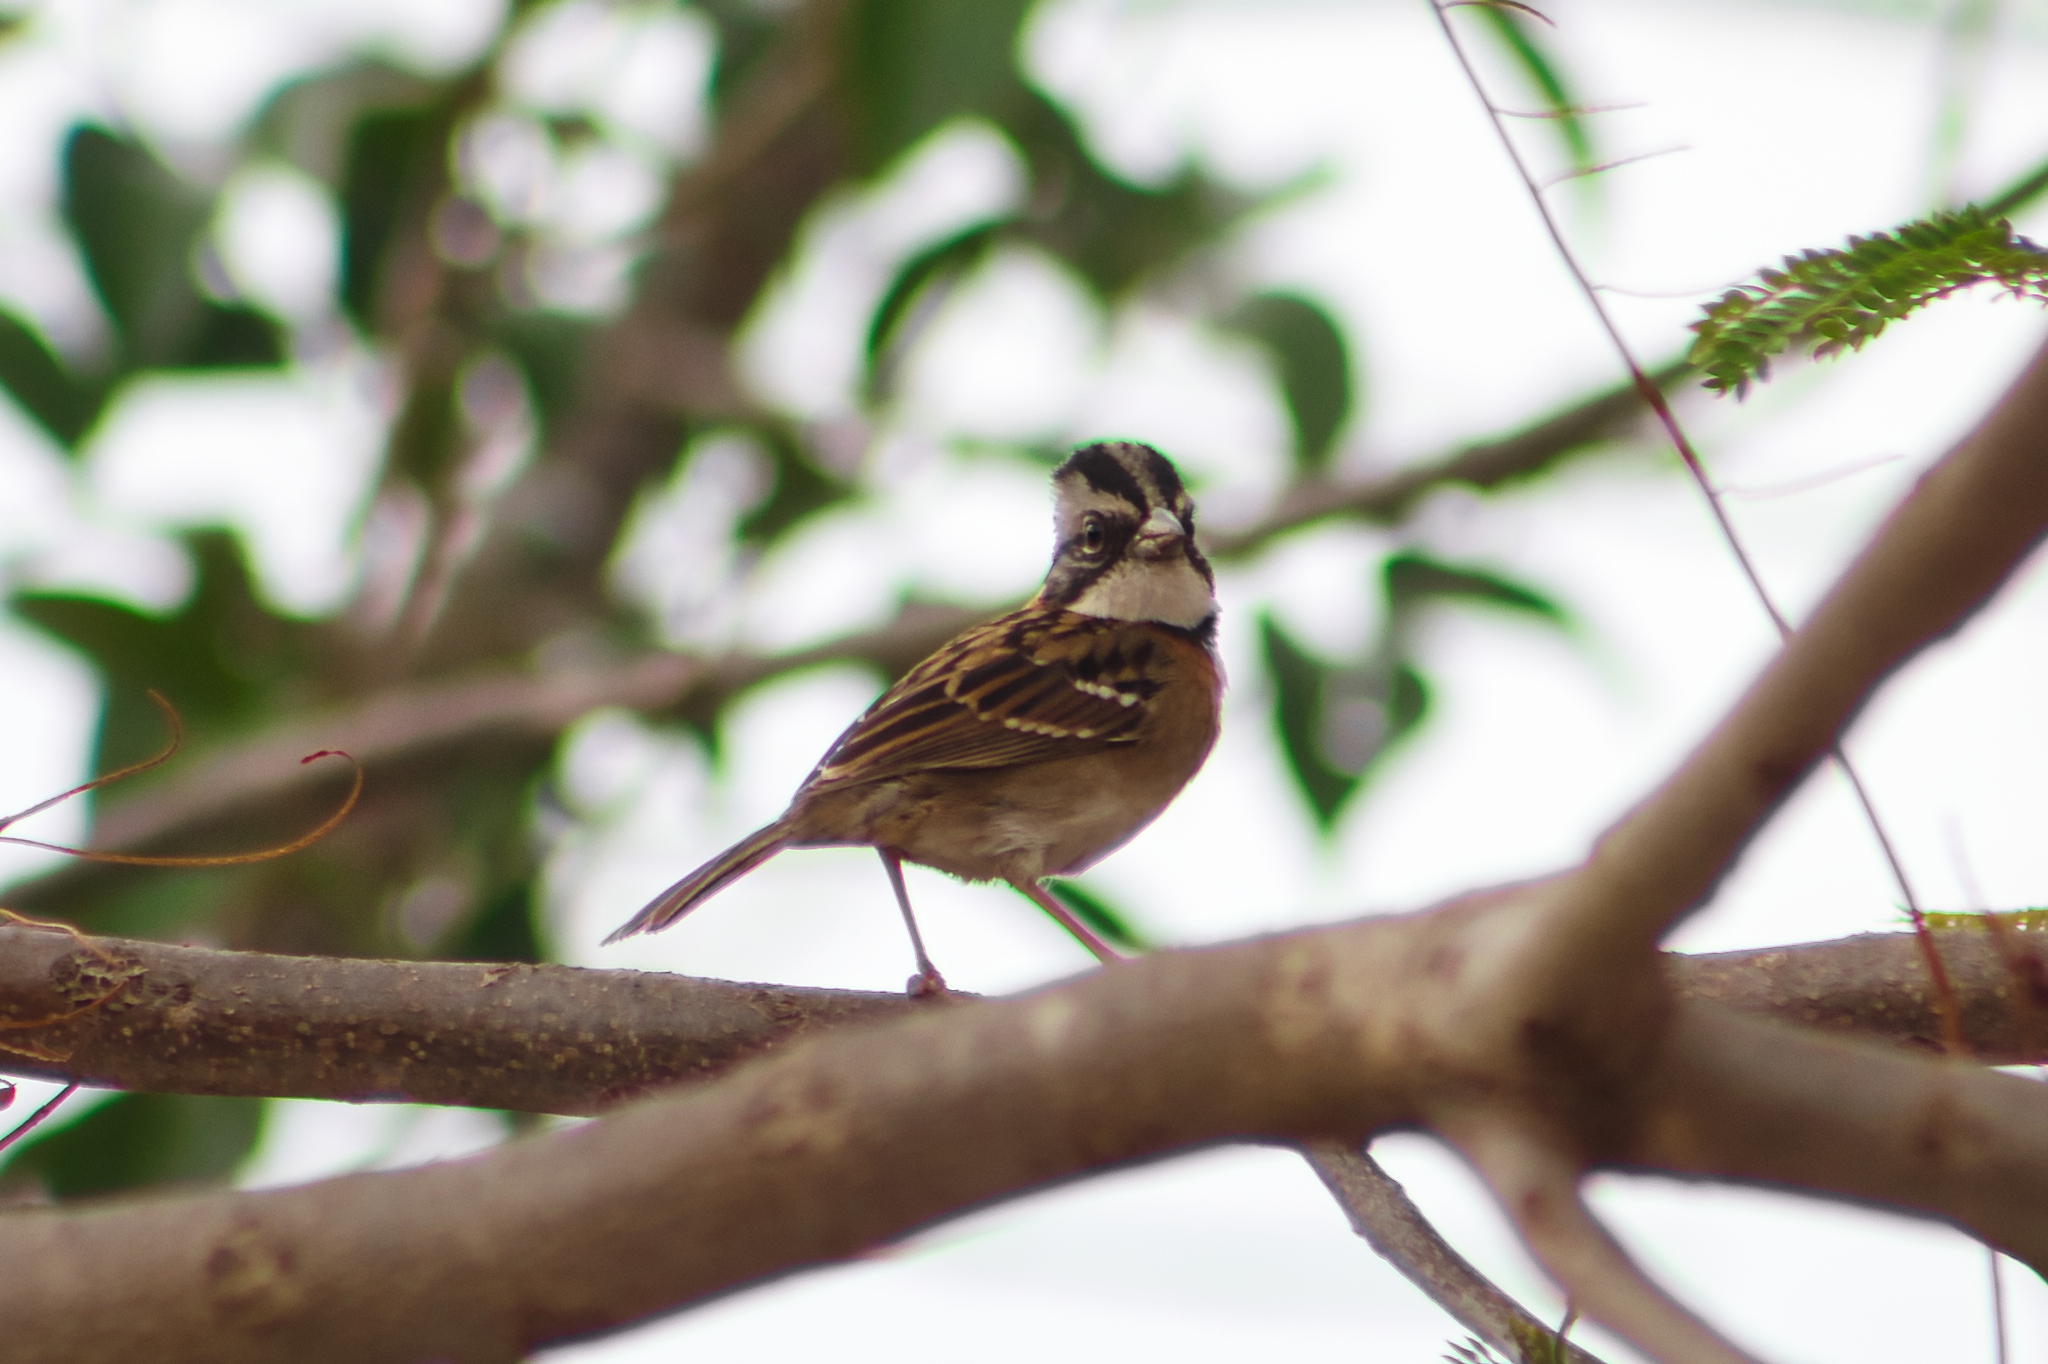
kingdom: Animalia
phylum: Chordata
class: Aves
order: Passeriformes
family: Passerellidae
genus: Zonotrichia
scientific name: Zonotrichia capensis
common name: Rufous-collared sparrow
